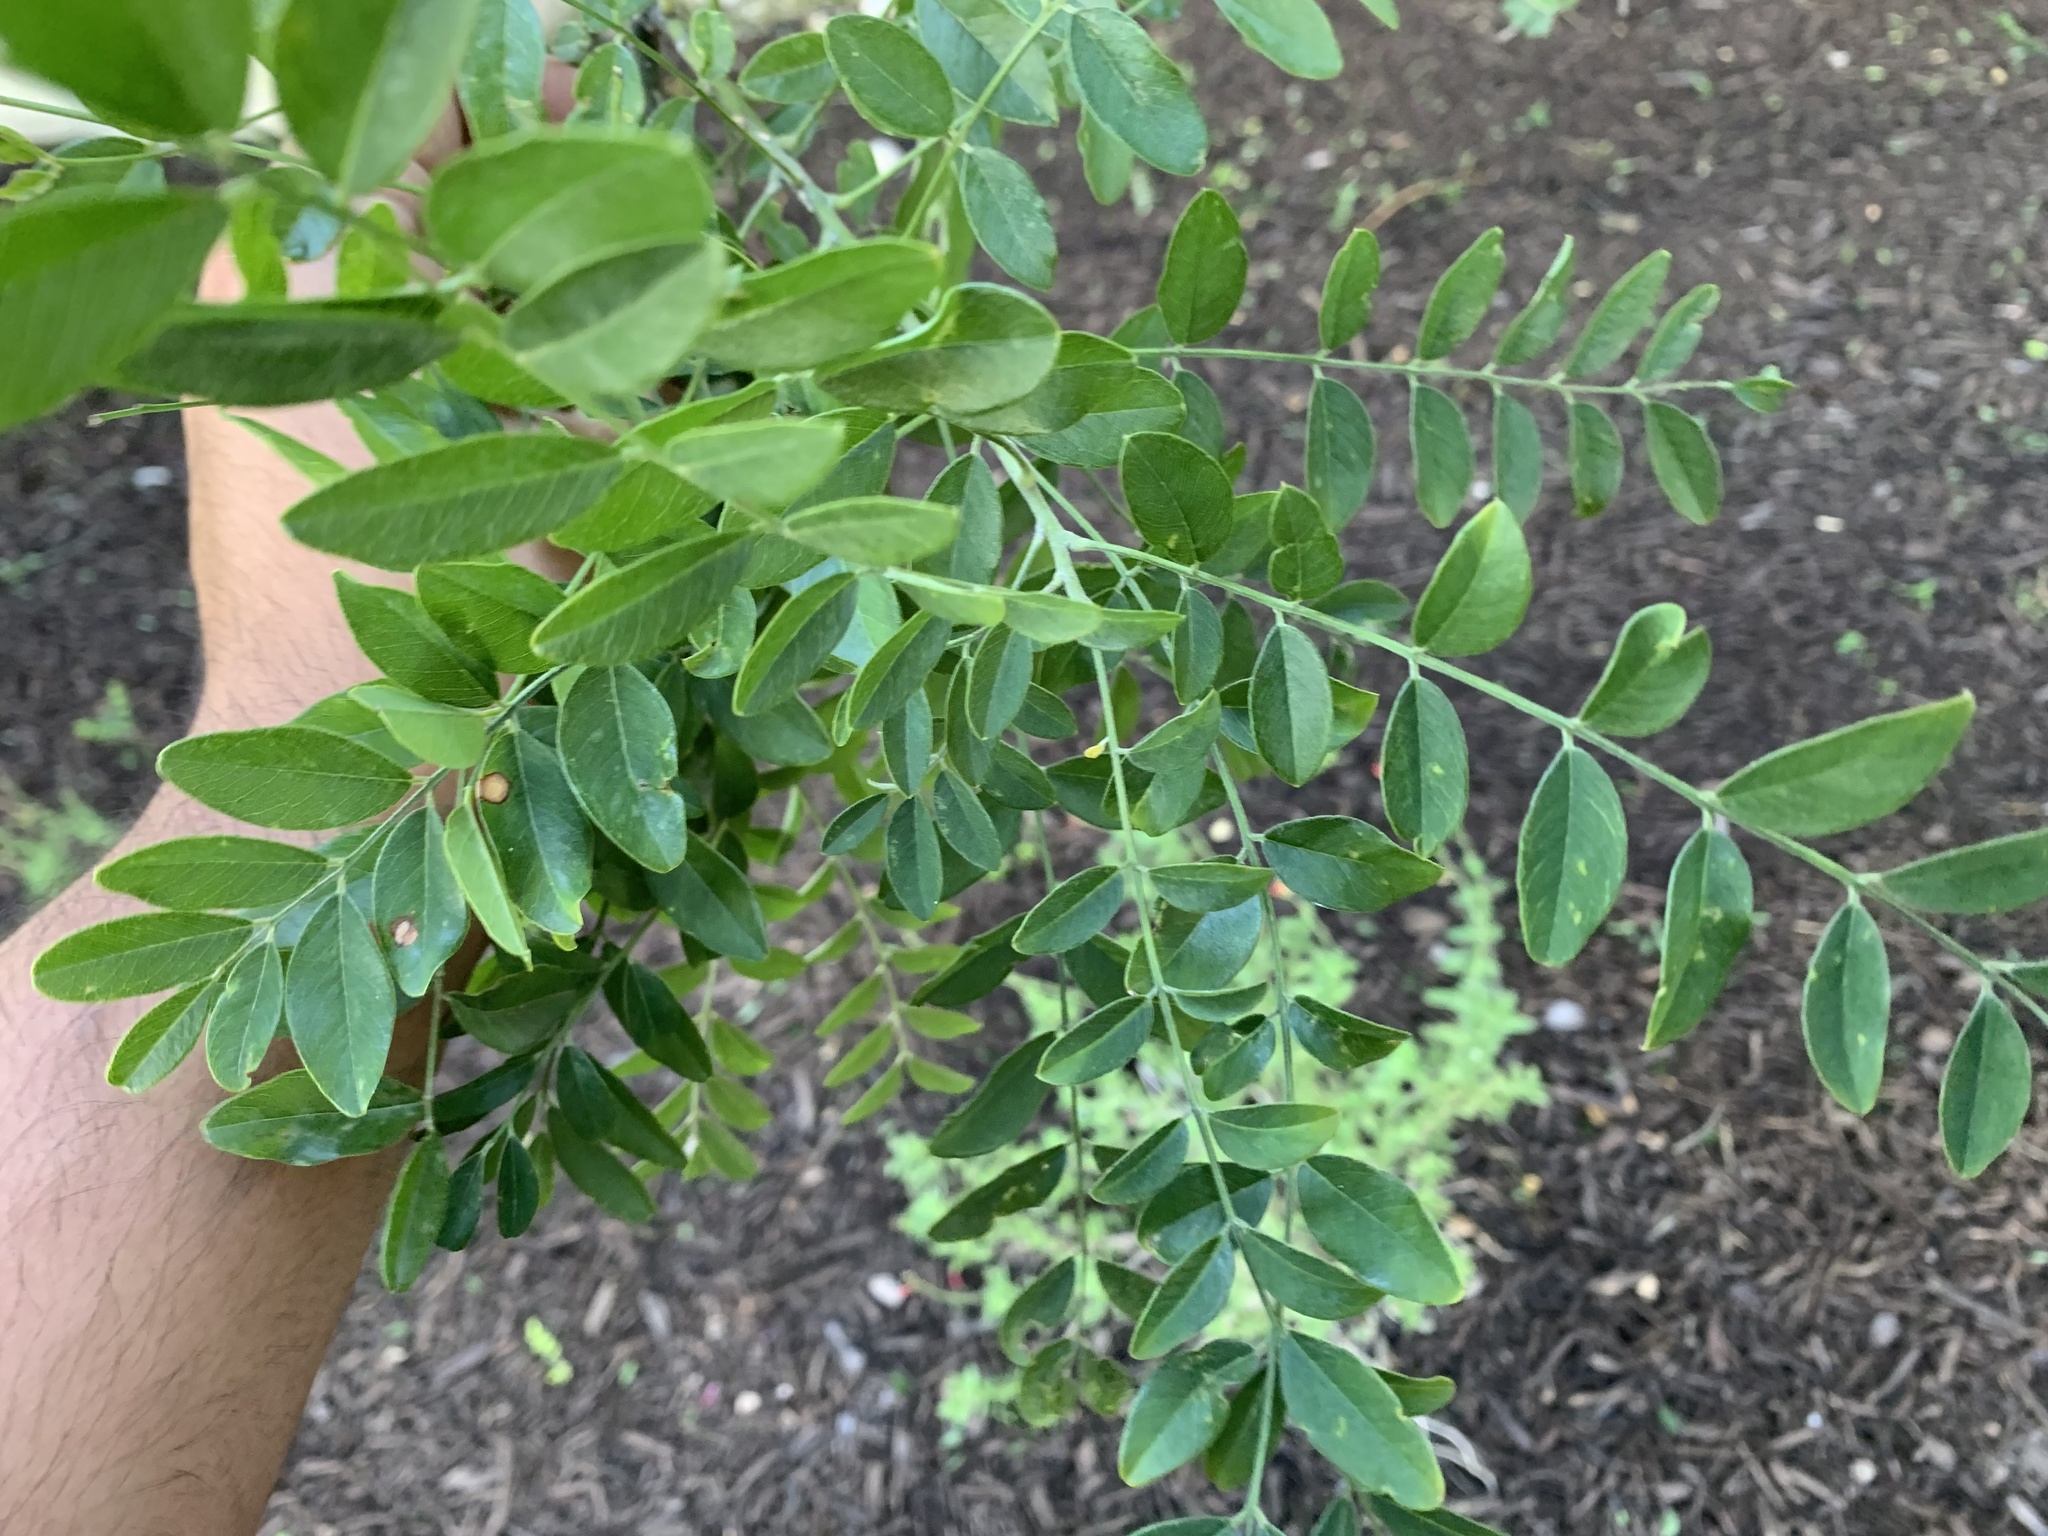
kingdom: Plantae
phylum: Tracheophyta
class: Magnoliopsida
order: Fabales
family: Fabaceae
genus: Styphnolobium
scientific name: Styphnolobium affine
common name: Texas sophora
